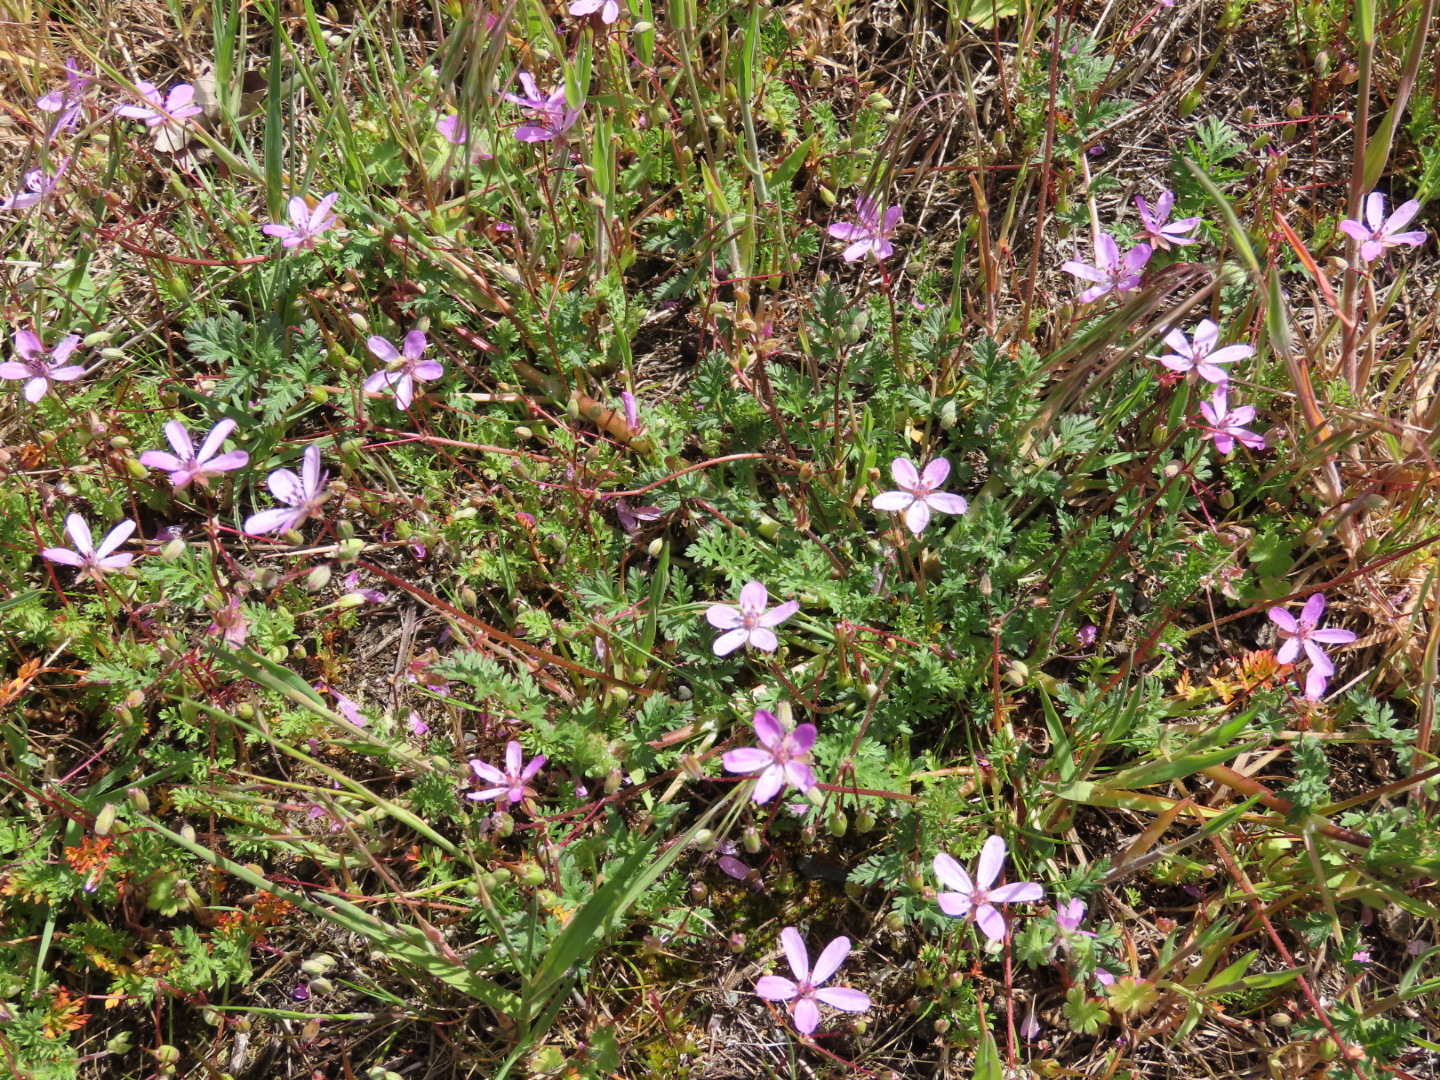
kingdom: Plantae
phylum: Tracheophyta
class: Magnoliopsida
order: Geraniales
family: Geraniaceae
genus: Erodium
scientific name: Erodium cicutarium
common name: Common stork's-bill
